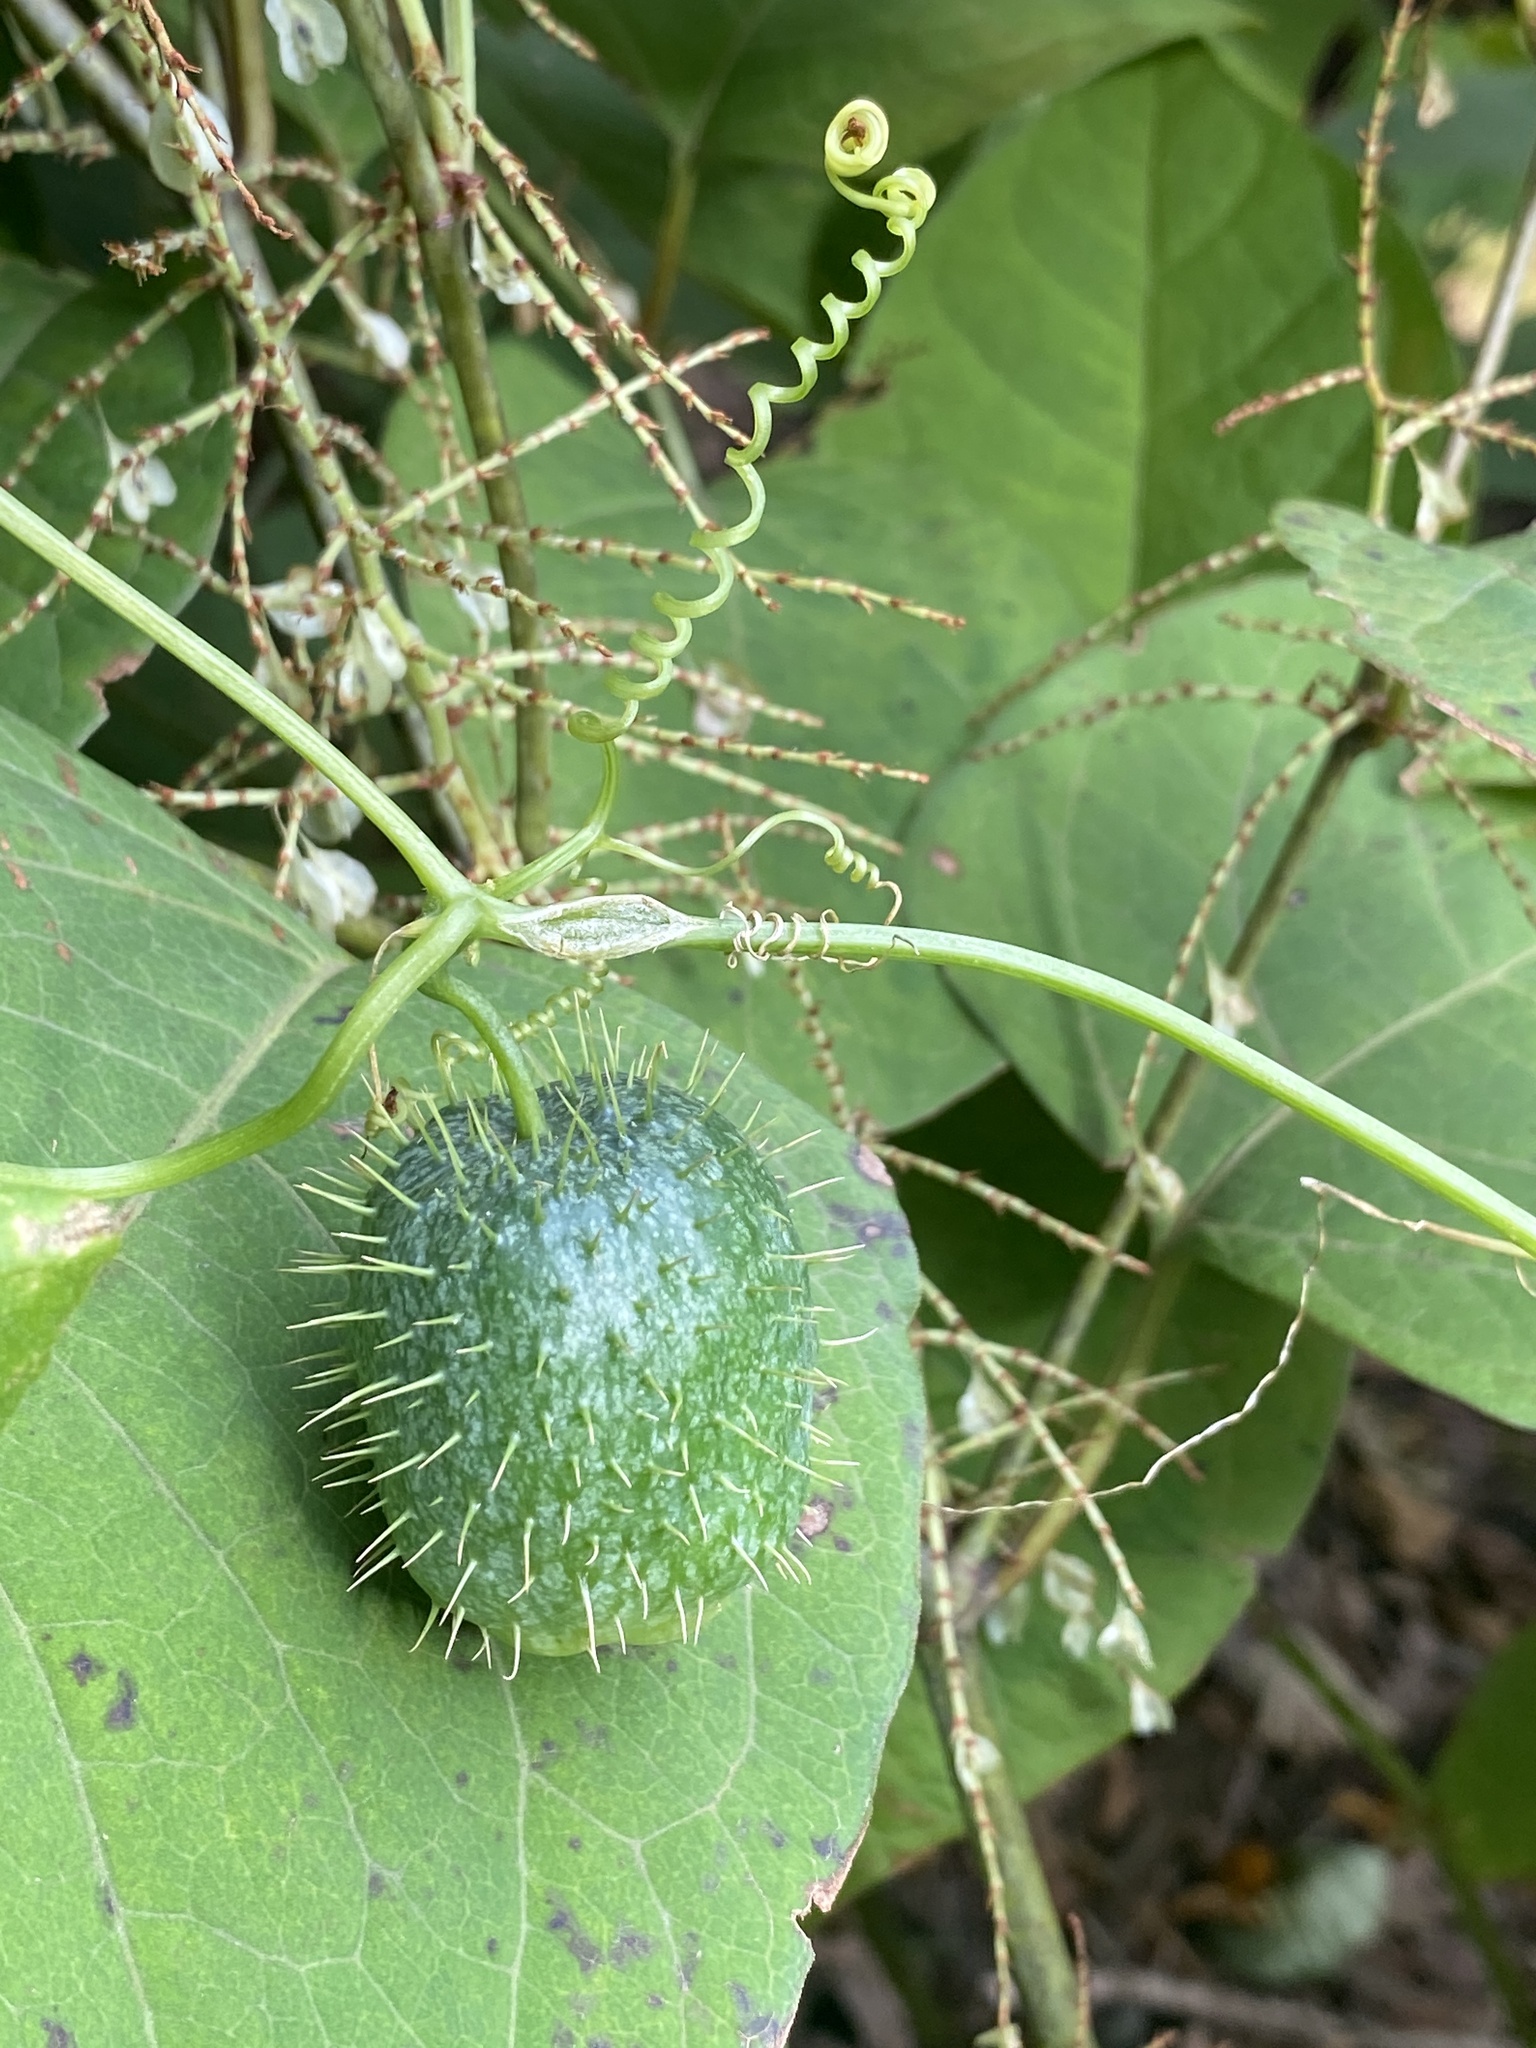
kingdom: Plantae
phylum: Tracheophyta
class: Magnoliopsida
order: Cucurbitales
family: Cucurbitaceae
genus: Echinocystis
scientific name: Echinocystis lobata
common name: Wild cucumber
